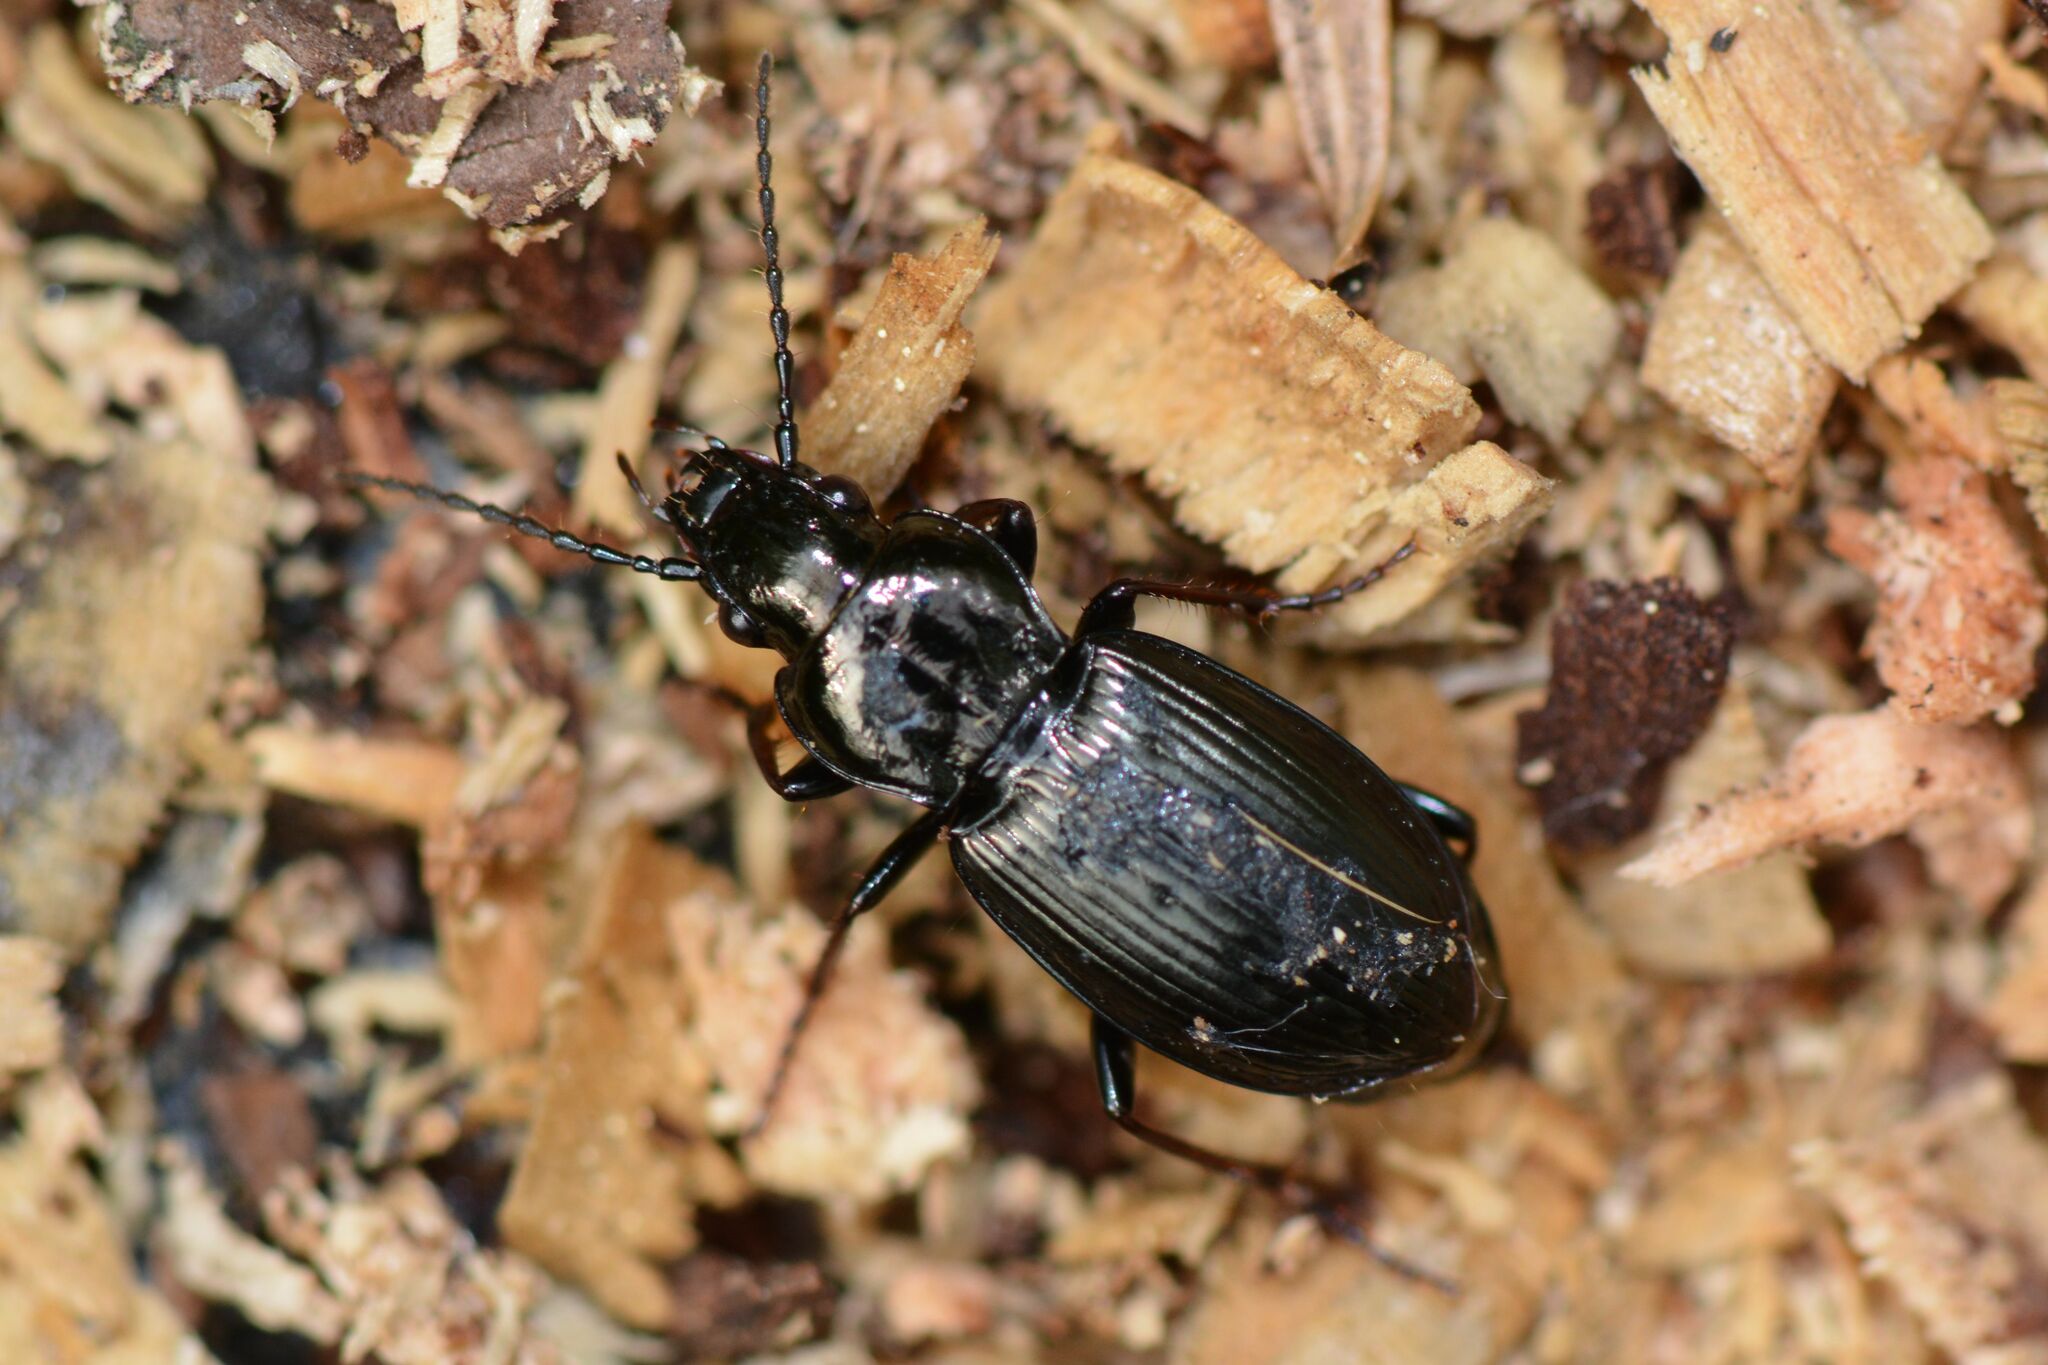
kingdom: Animalia
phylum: Arthropoda
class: Insecta
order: Coleoptera
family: Carabidae
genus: Pterostichus
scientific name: Pterostichus oblongopunctatus
